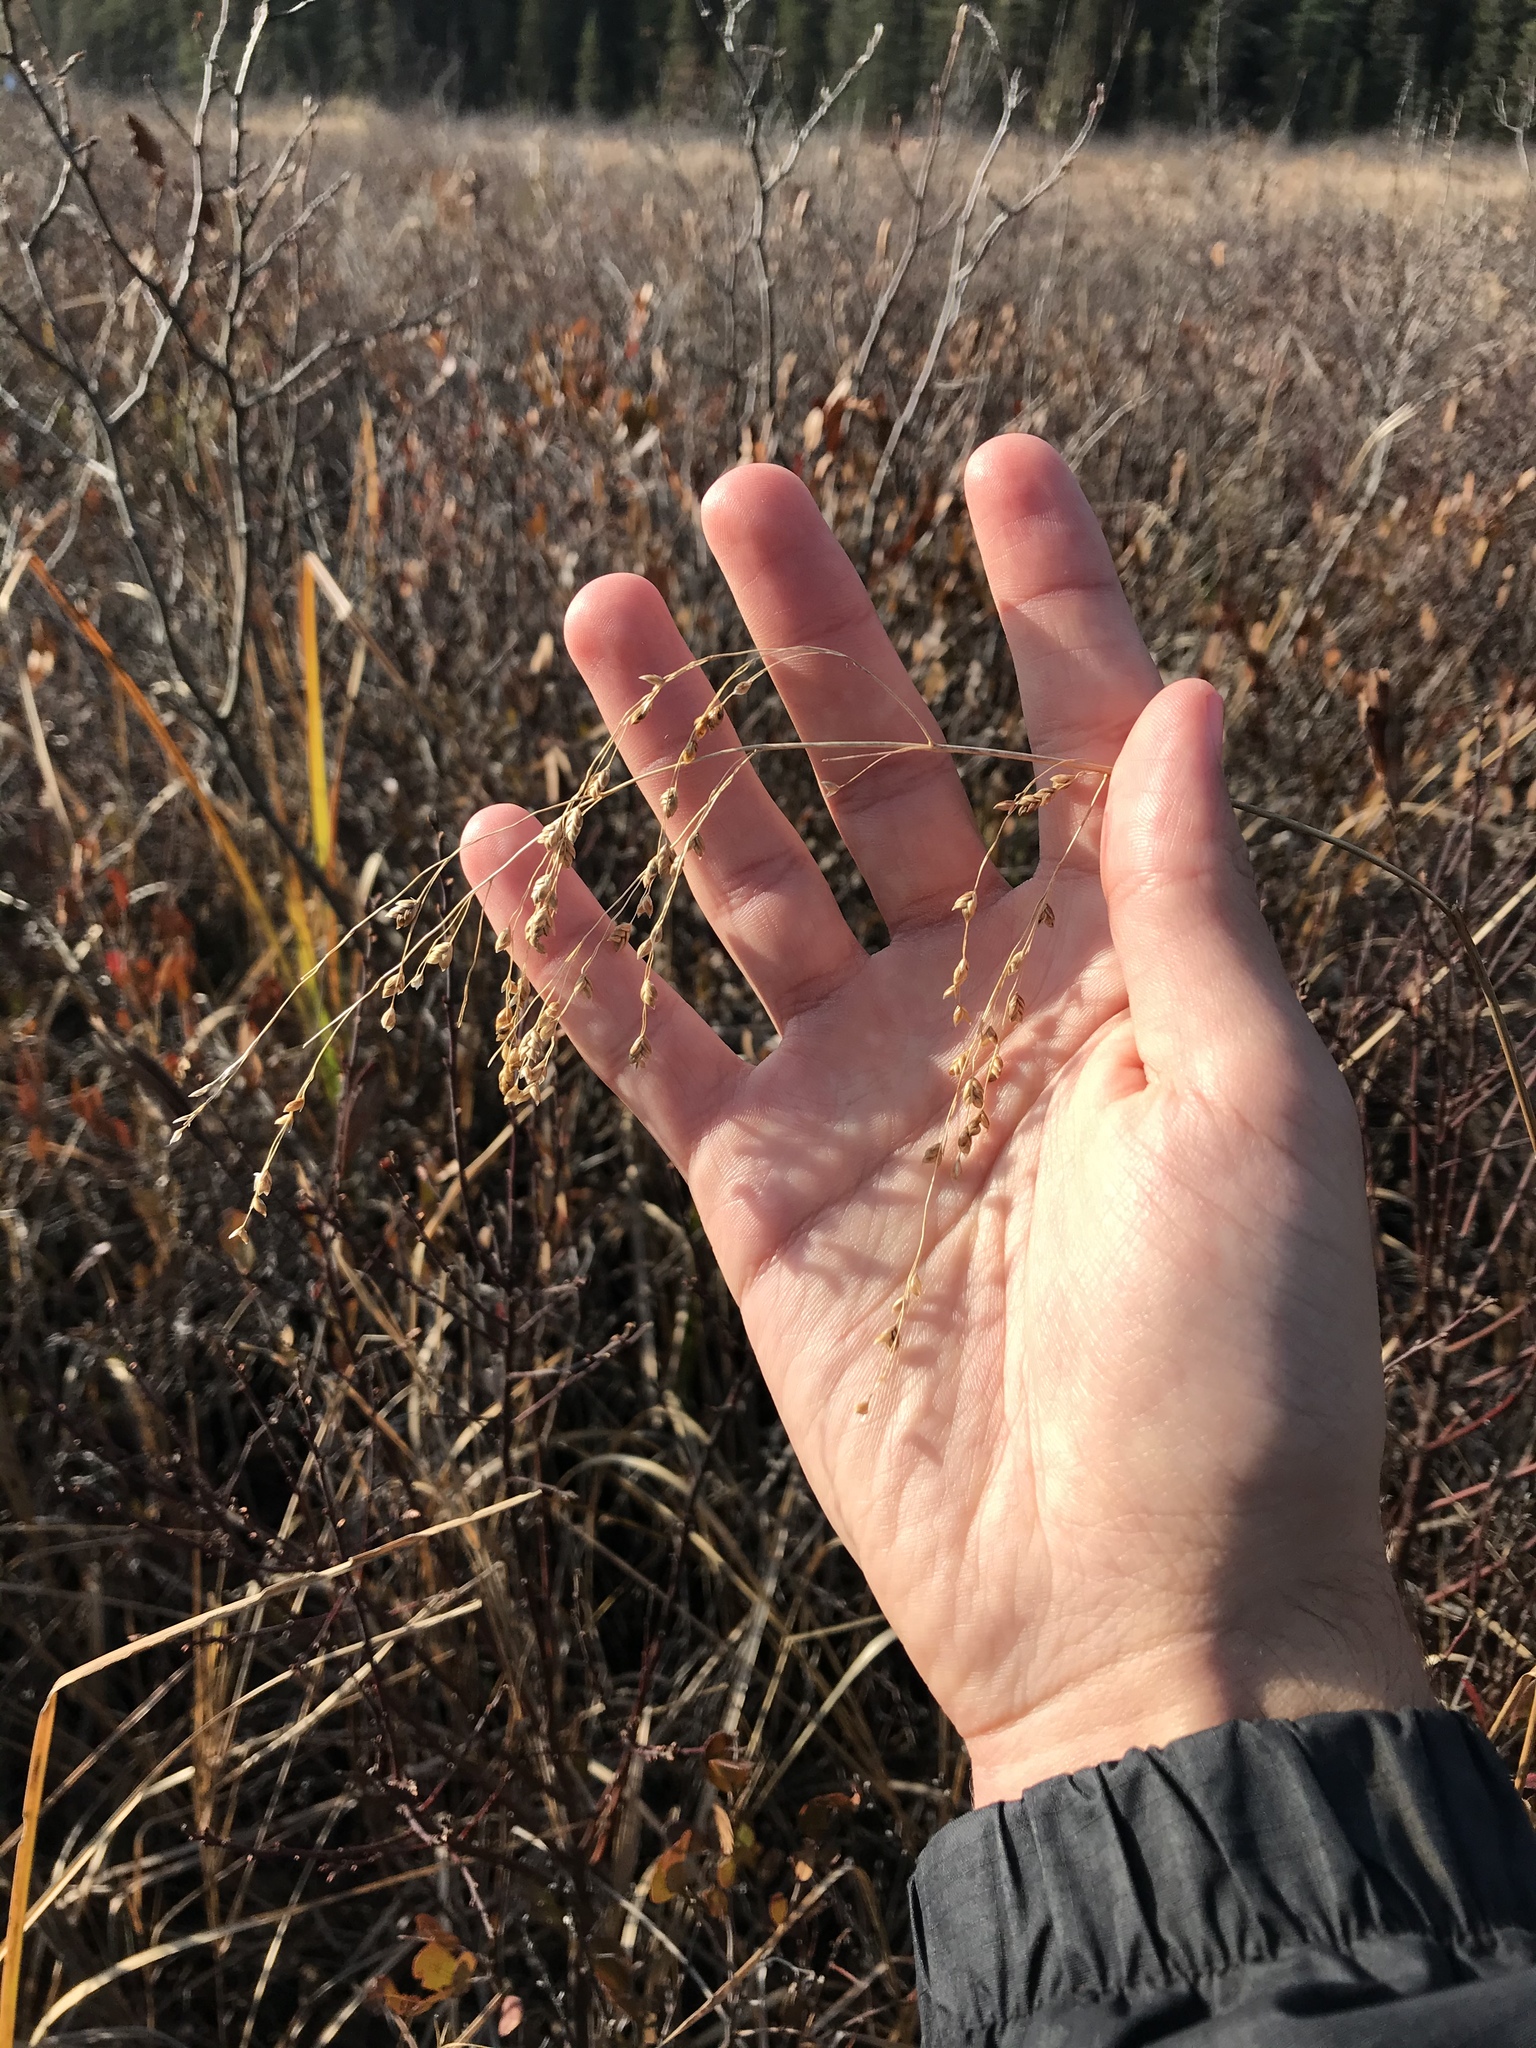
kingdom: Plantae
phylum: Tracheophyta
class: Liliopsida
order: Poales
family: Poaceae
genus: Glyceria
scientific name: Glyceria canadensis
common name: Canada mannagrass
